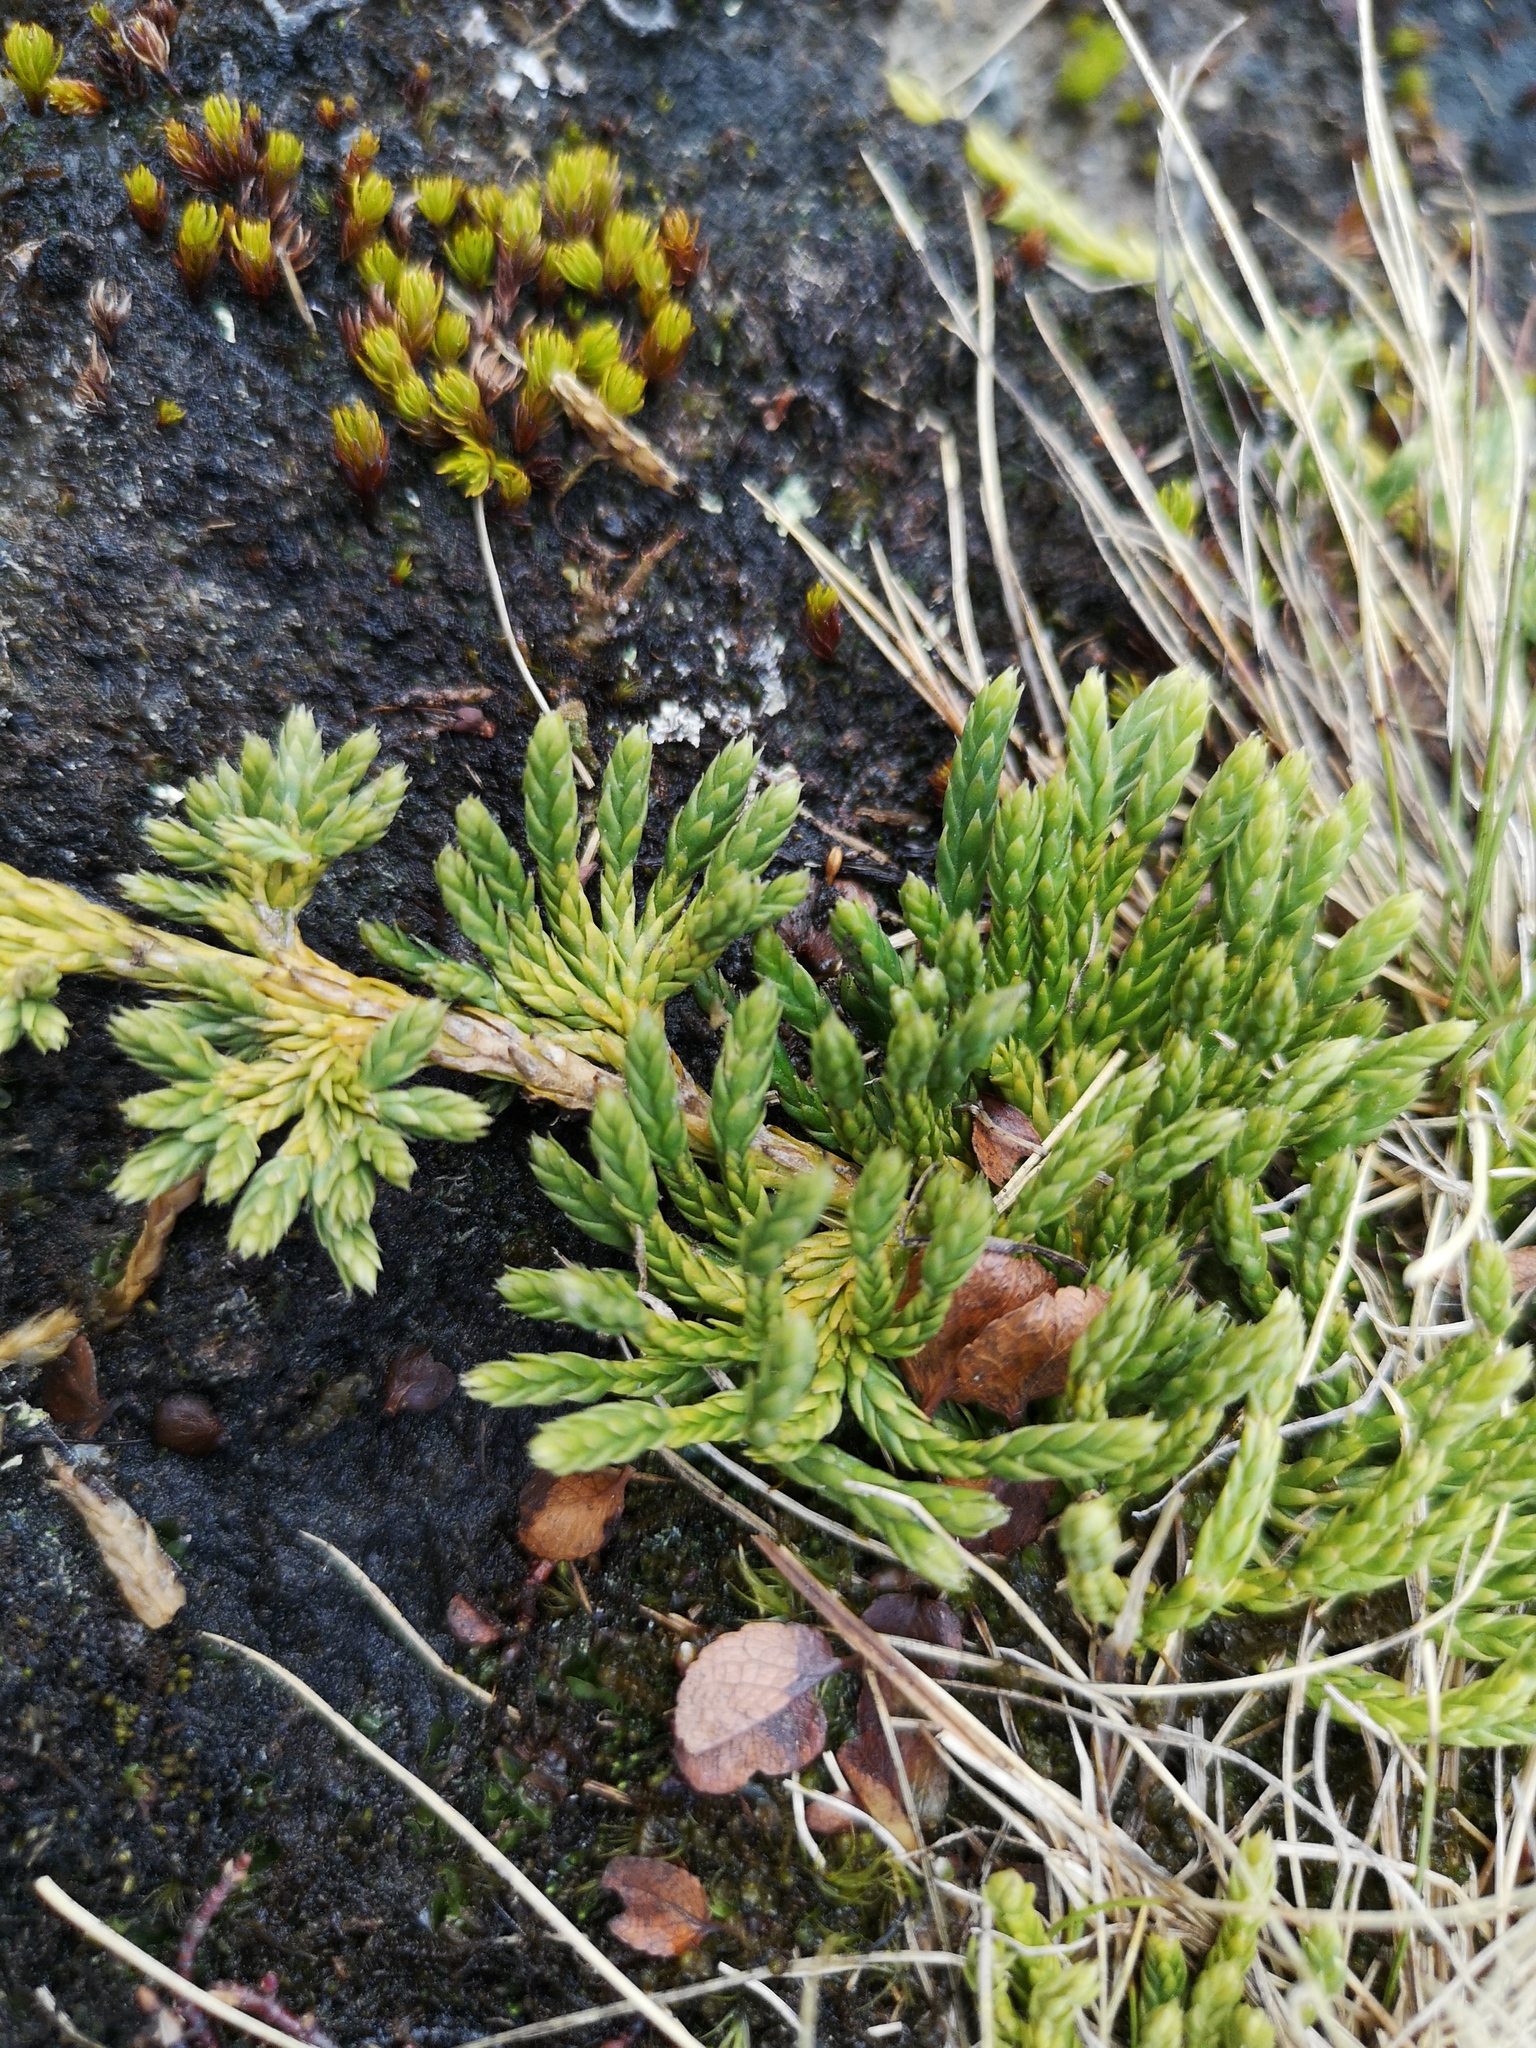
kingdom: Plantae
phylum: Tracheophyta
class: Lycopodiopsida
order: Lycopodiales
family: Lycopodiaceae
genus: Diphasiastrum
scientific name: Diphasiastrum alpinum
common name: Alpine clubmoss
